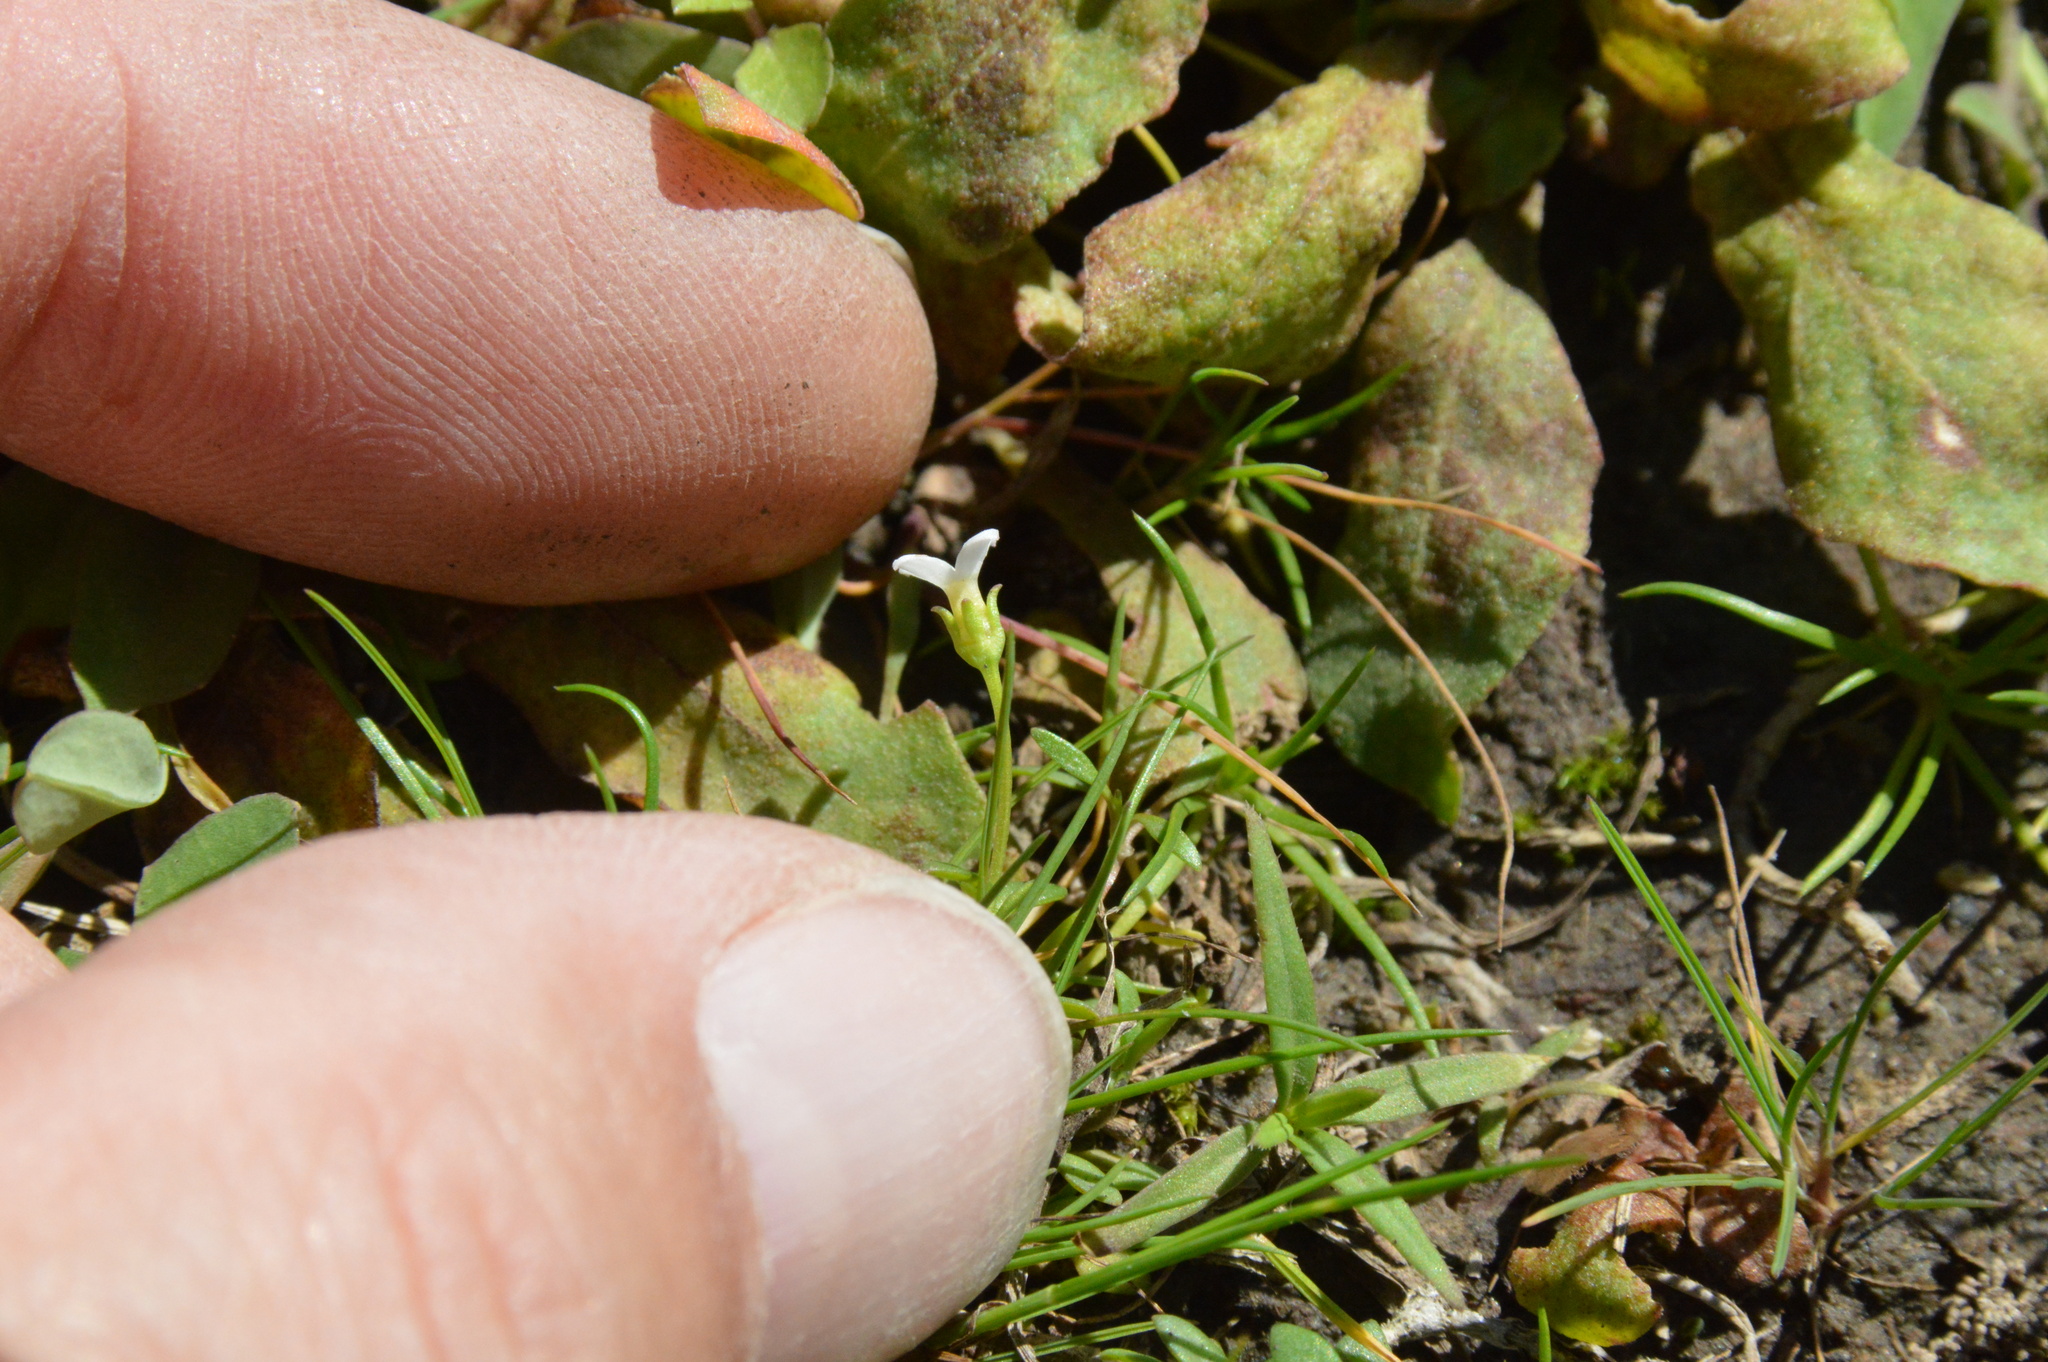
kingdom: Plantae
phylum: Tracheophyta
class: Magnoliopsida
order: Gentianales
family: Rubiaceae
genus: Houstonia
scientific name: Houstonia micrantha
